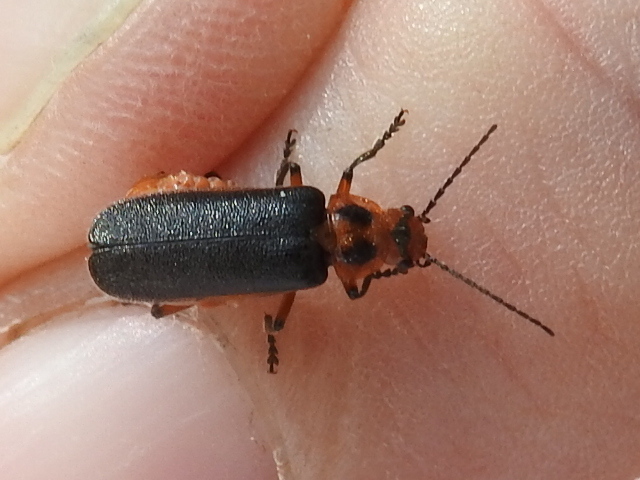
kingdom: Animalia
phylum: Arthropoda
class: Insecta
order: Coleoptera
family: Cantharidae
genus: Atalantycha
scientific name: Atalantycha bilineata
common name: Two-lined leatherwing
